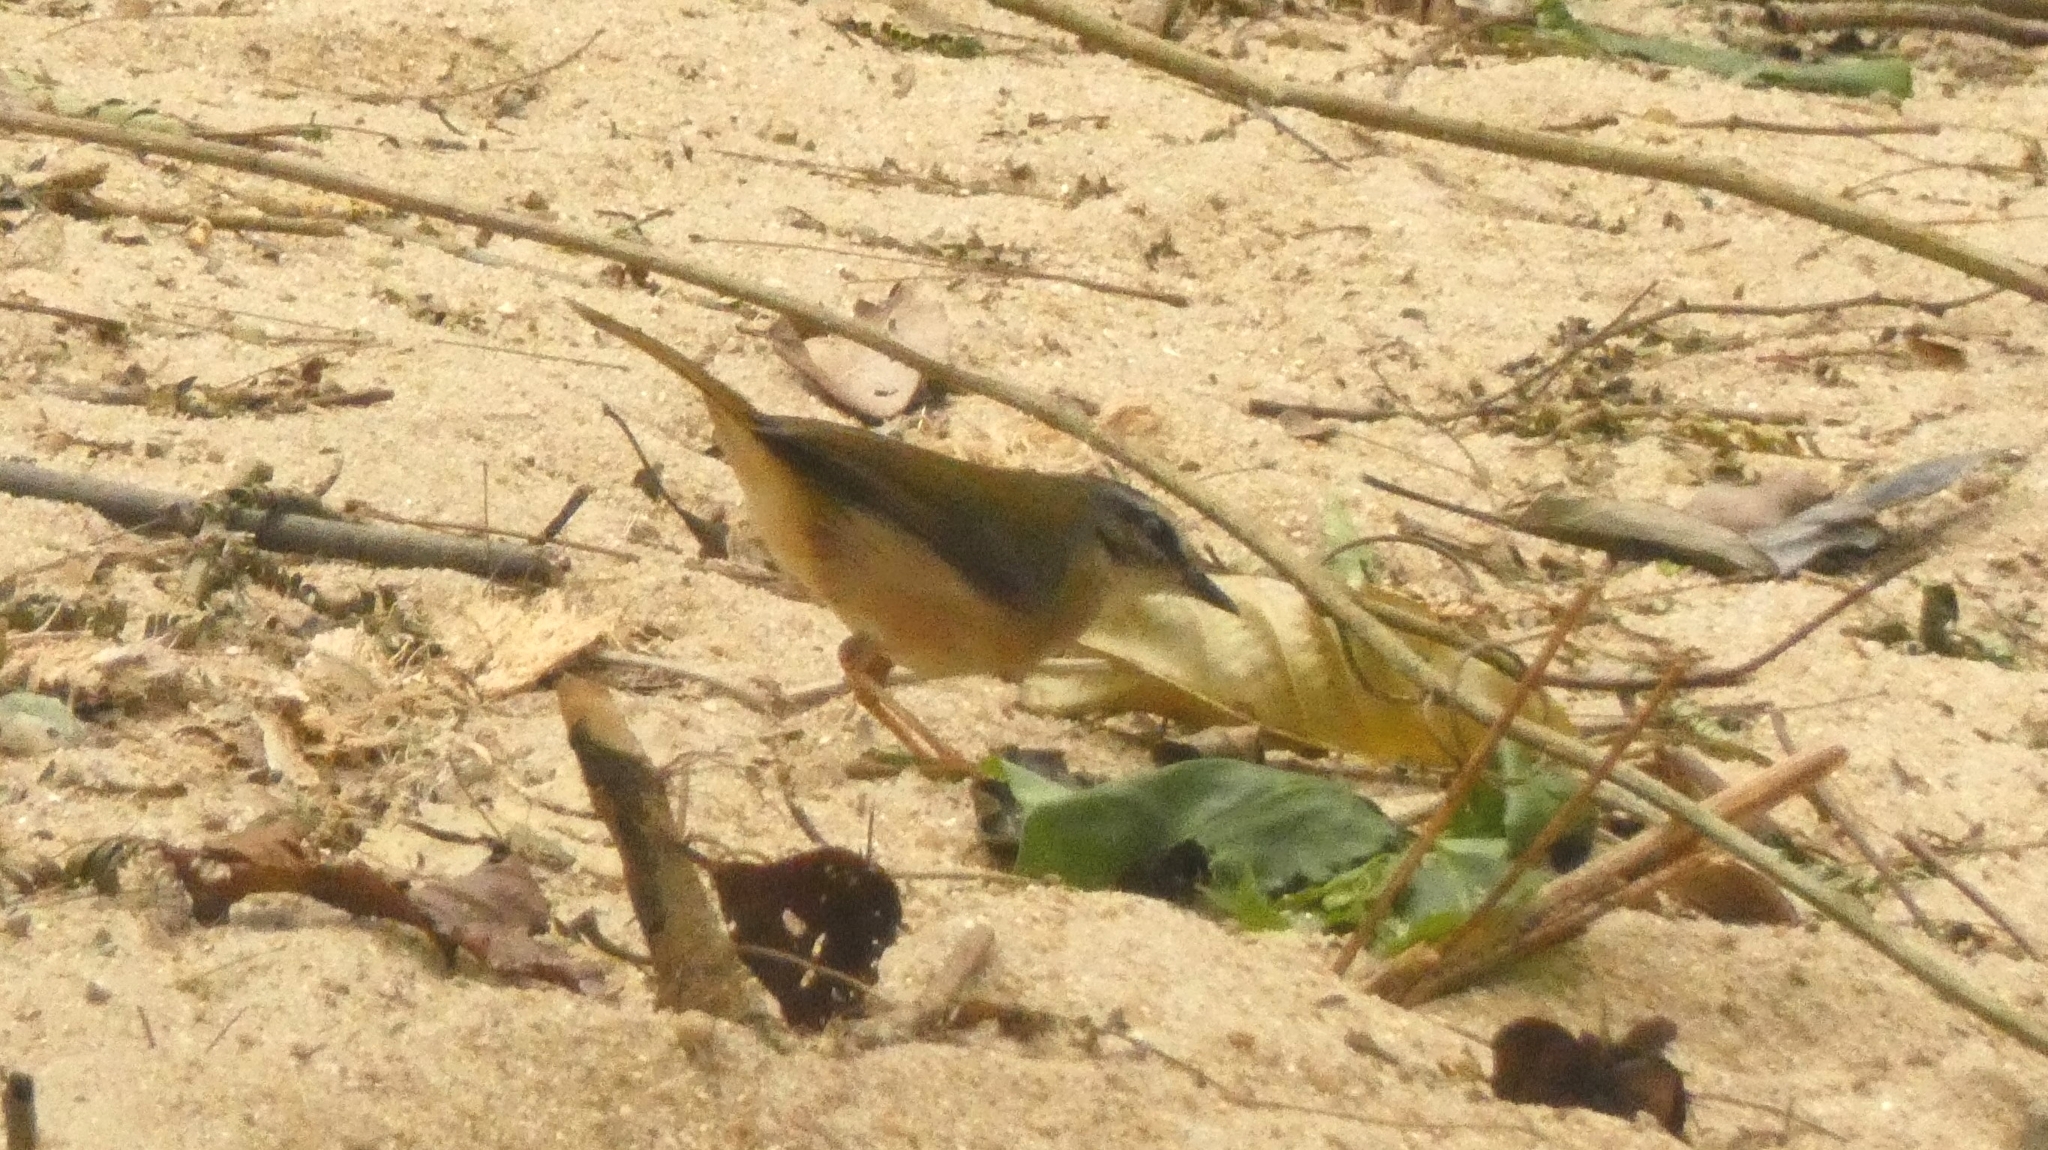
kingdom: Animalia
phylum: Chordata
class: Aves
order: Passeriformes
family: Parulidae
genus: Myiothlypis
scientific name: Myiothlypis rivularis
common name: Riverbank warbler
